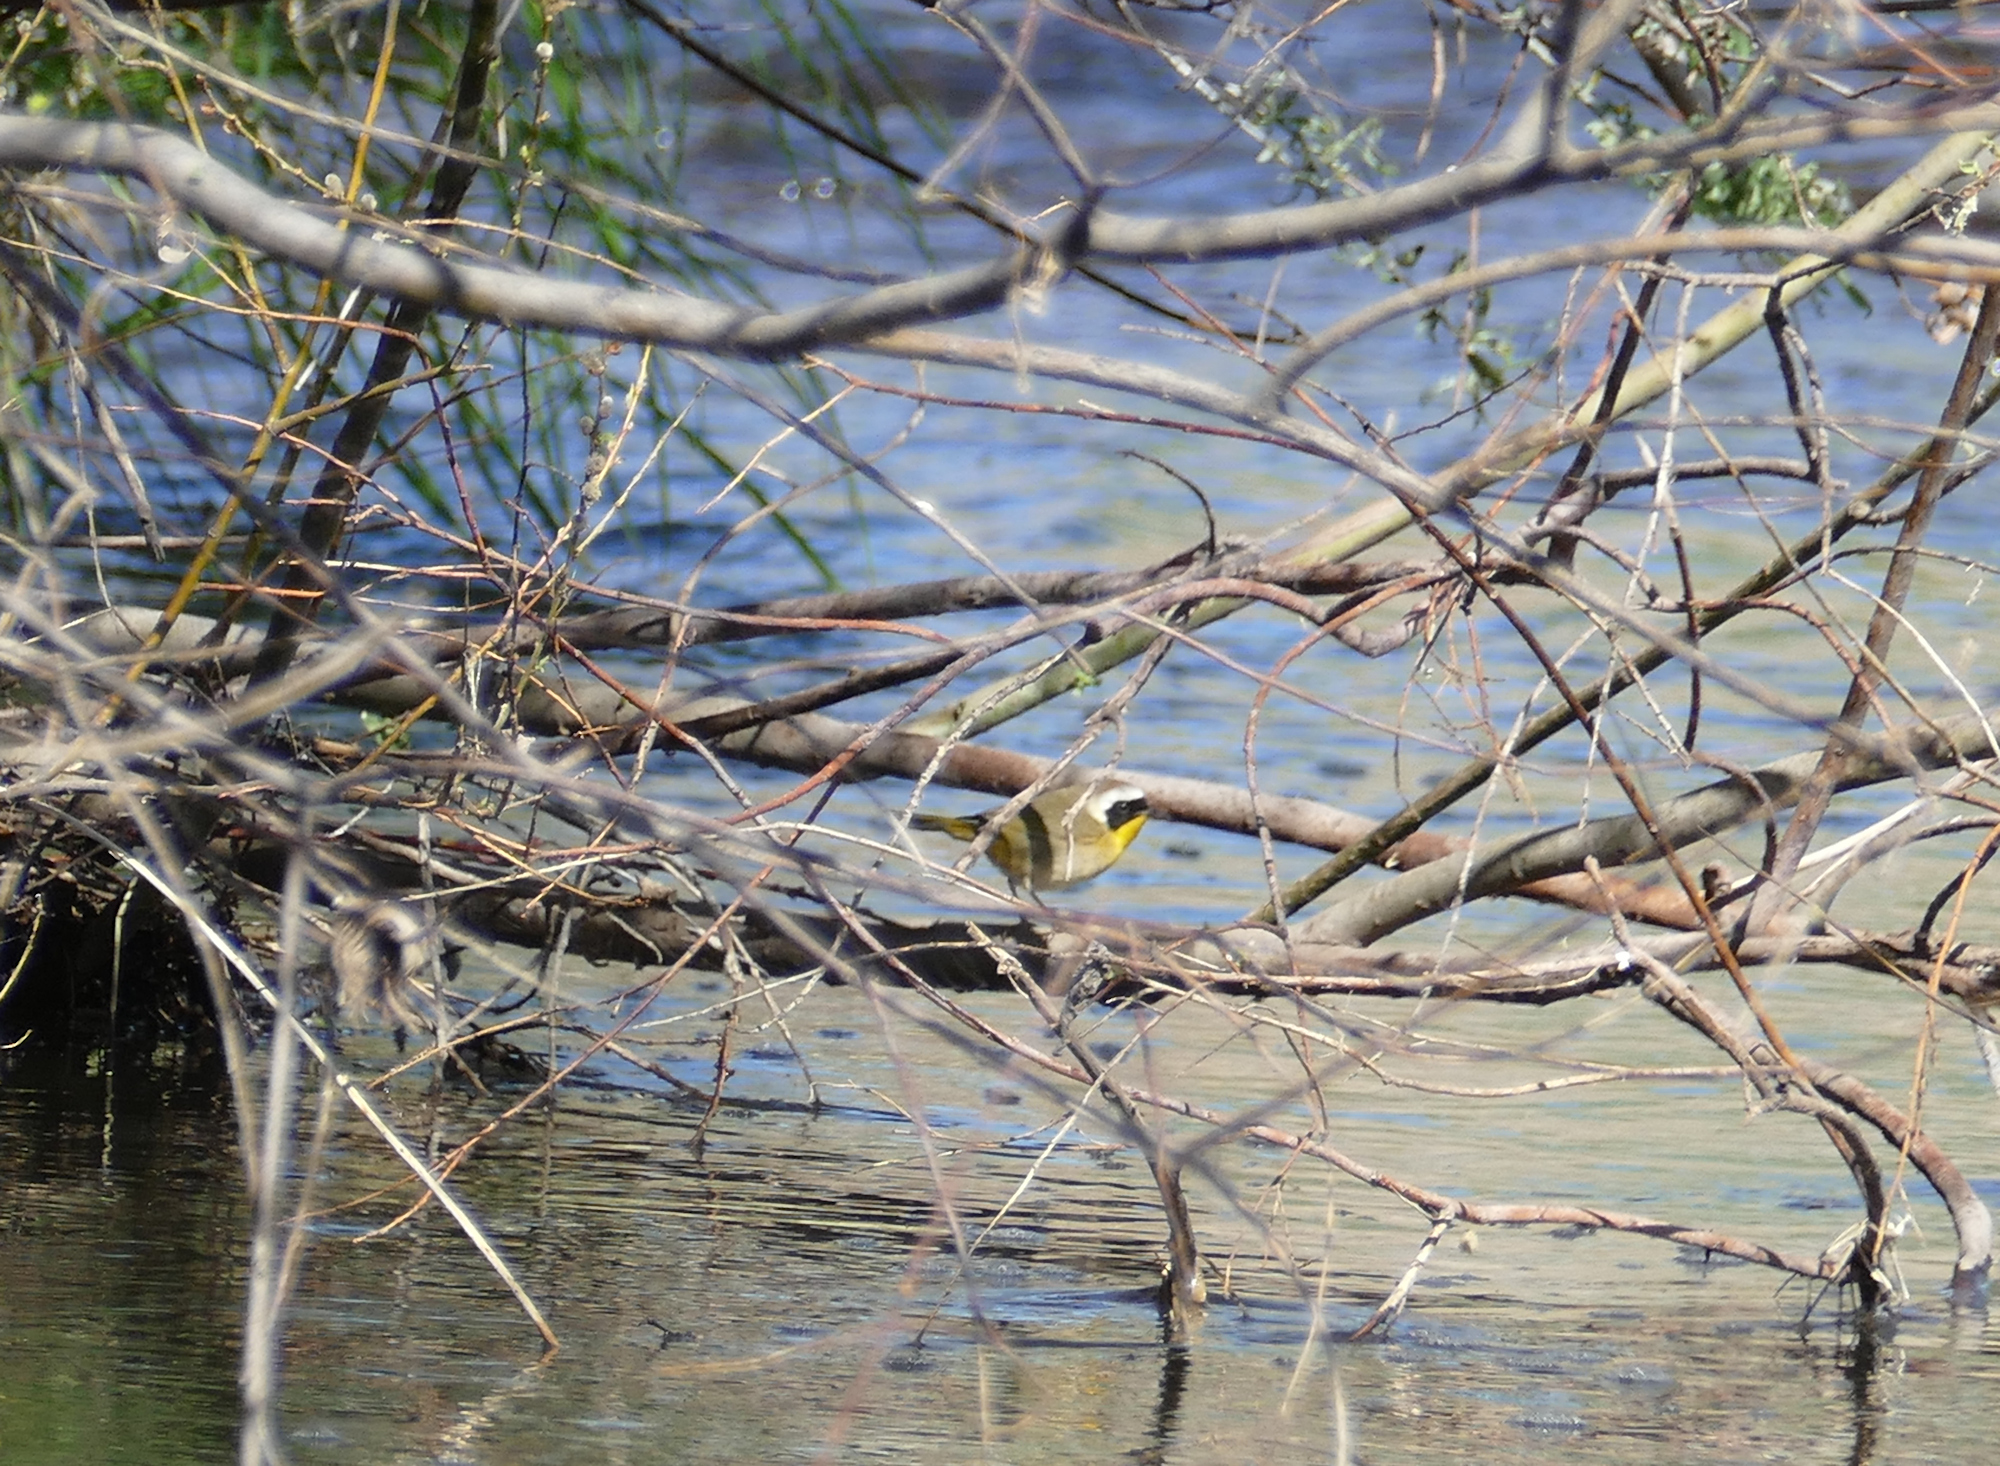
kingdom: Animalia
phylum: Chordata
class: Aves
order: Passeriformes
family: Parulidae
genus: Geothlypis
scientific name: Geothlypis trichas
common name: Common yellowthroat
